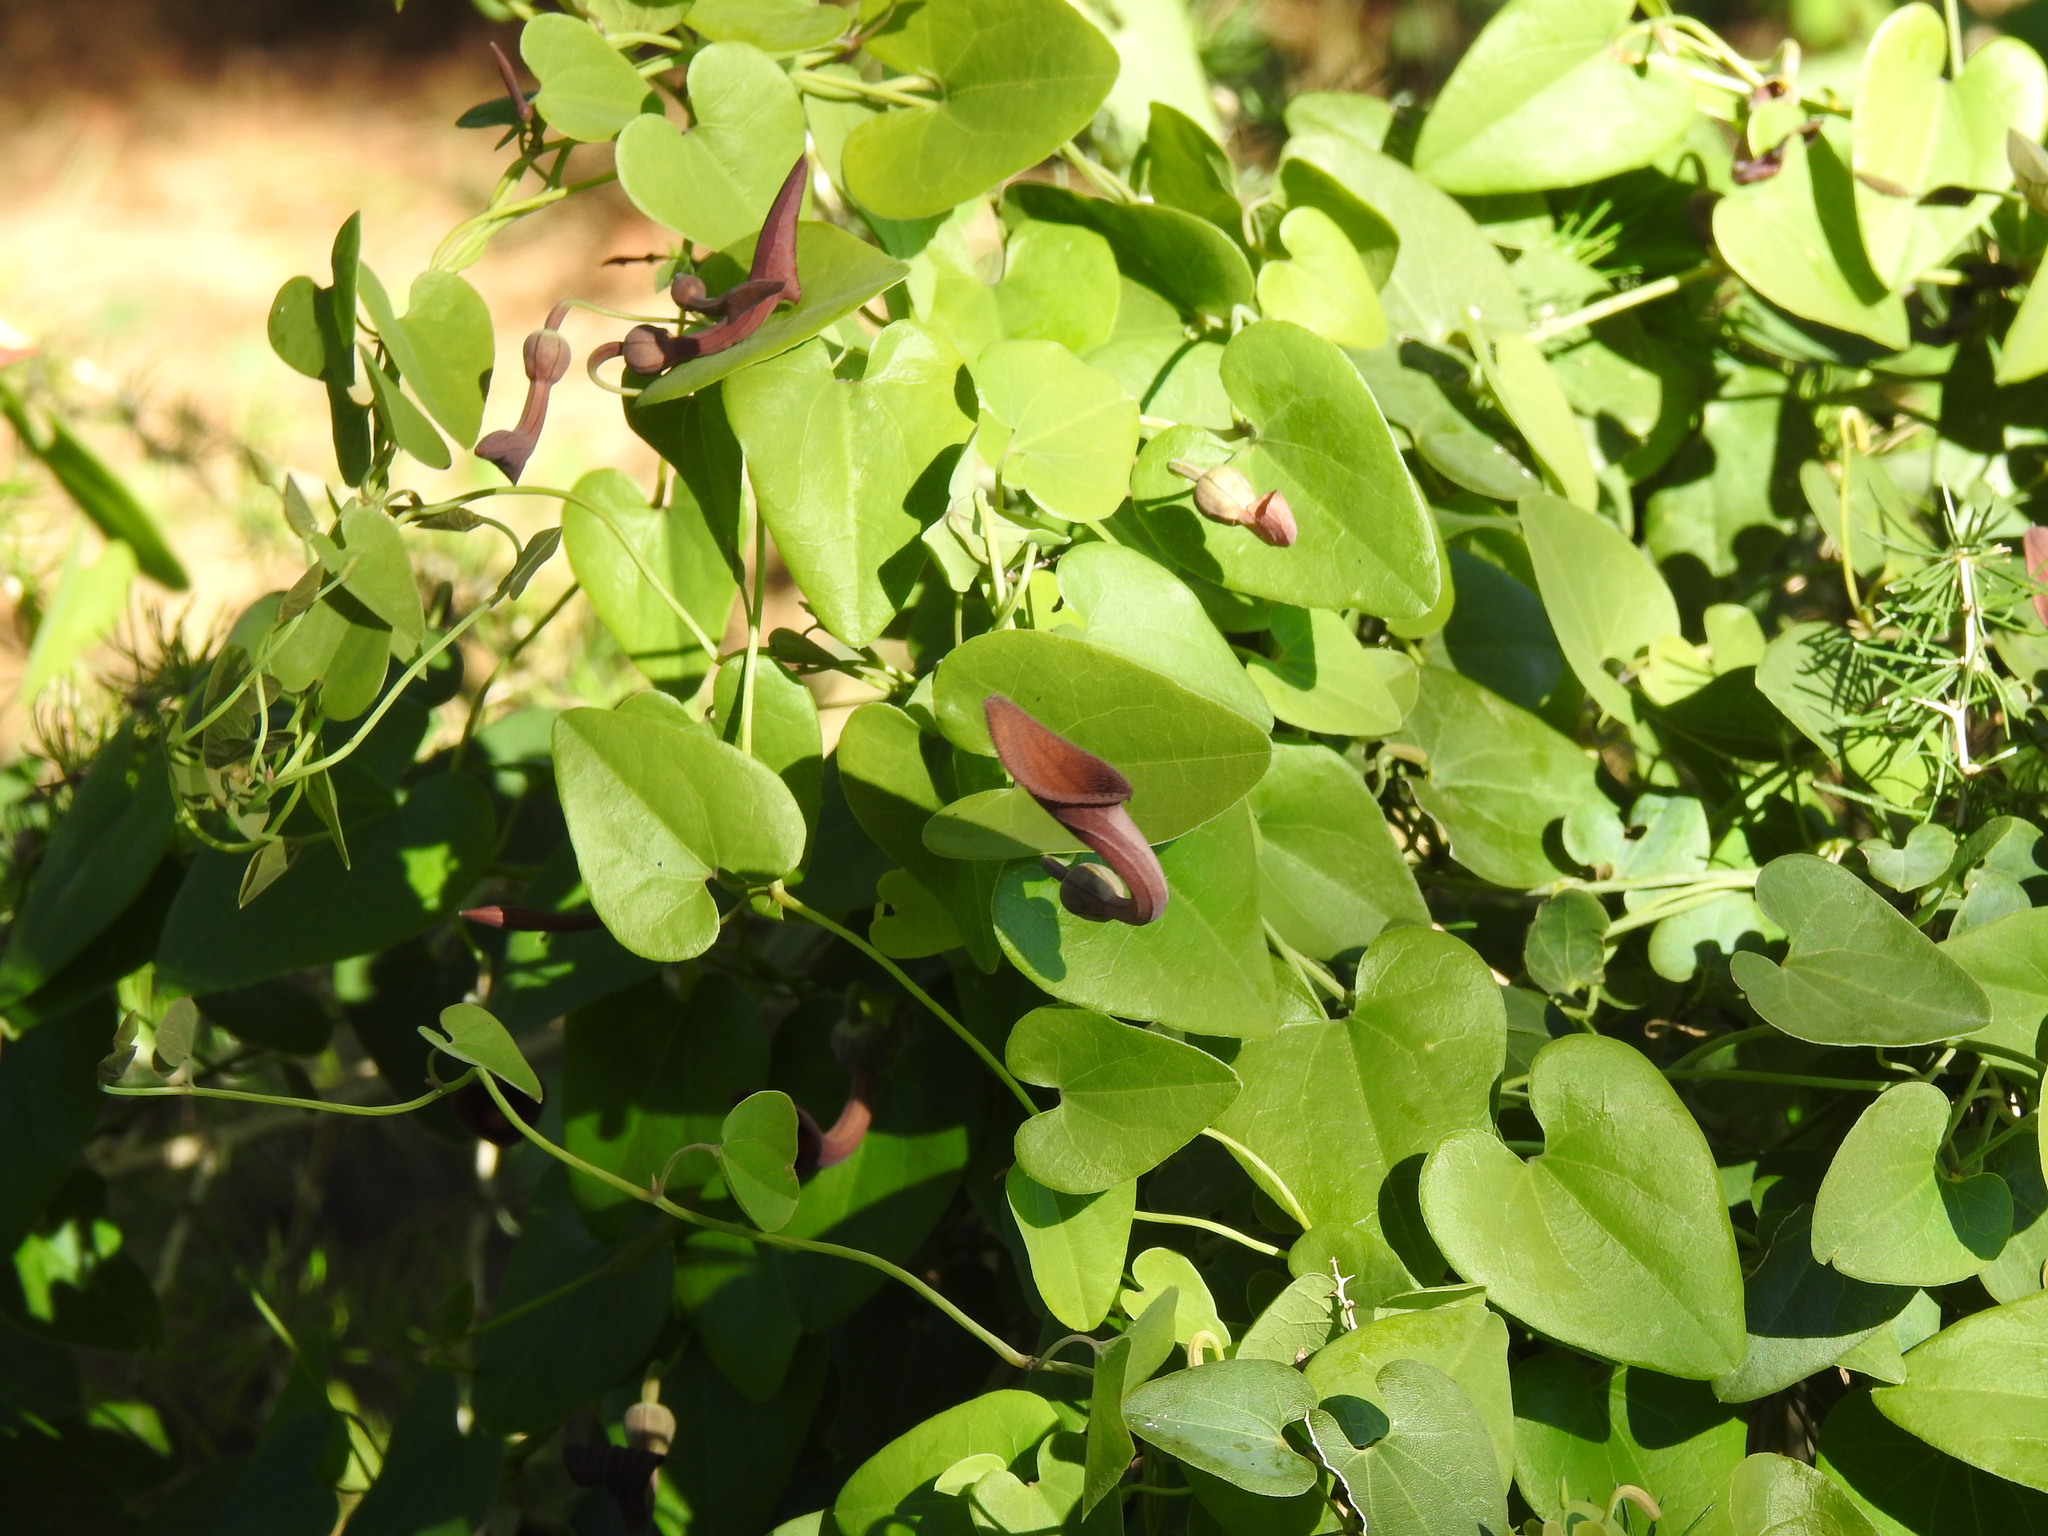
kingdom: Plantae
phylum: Tracheophyta
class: Magnoliopsida
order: Piperales
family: Aristolochiaceae
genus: Aristolochia
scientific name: Aristolochia baetica
